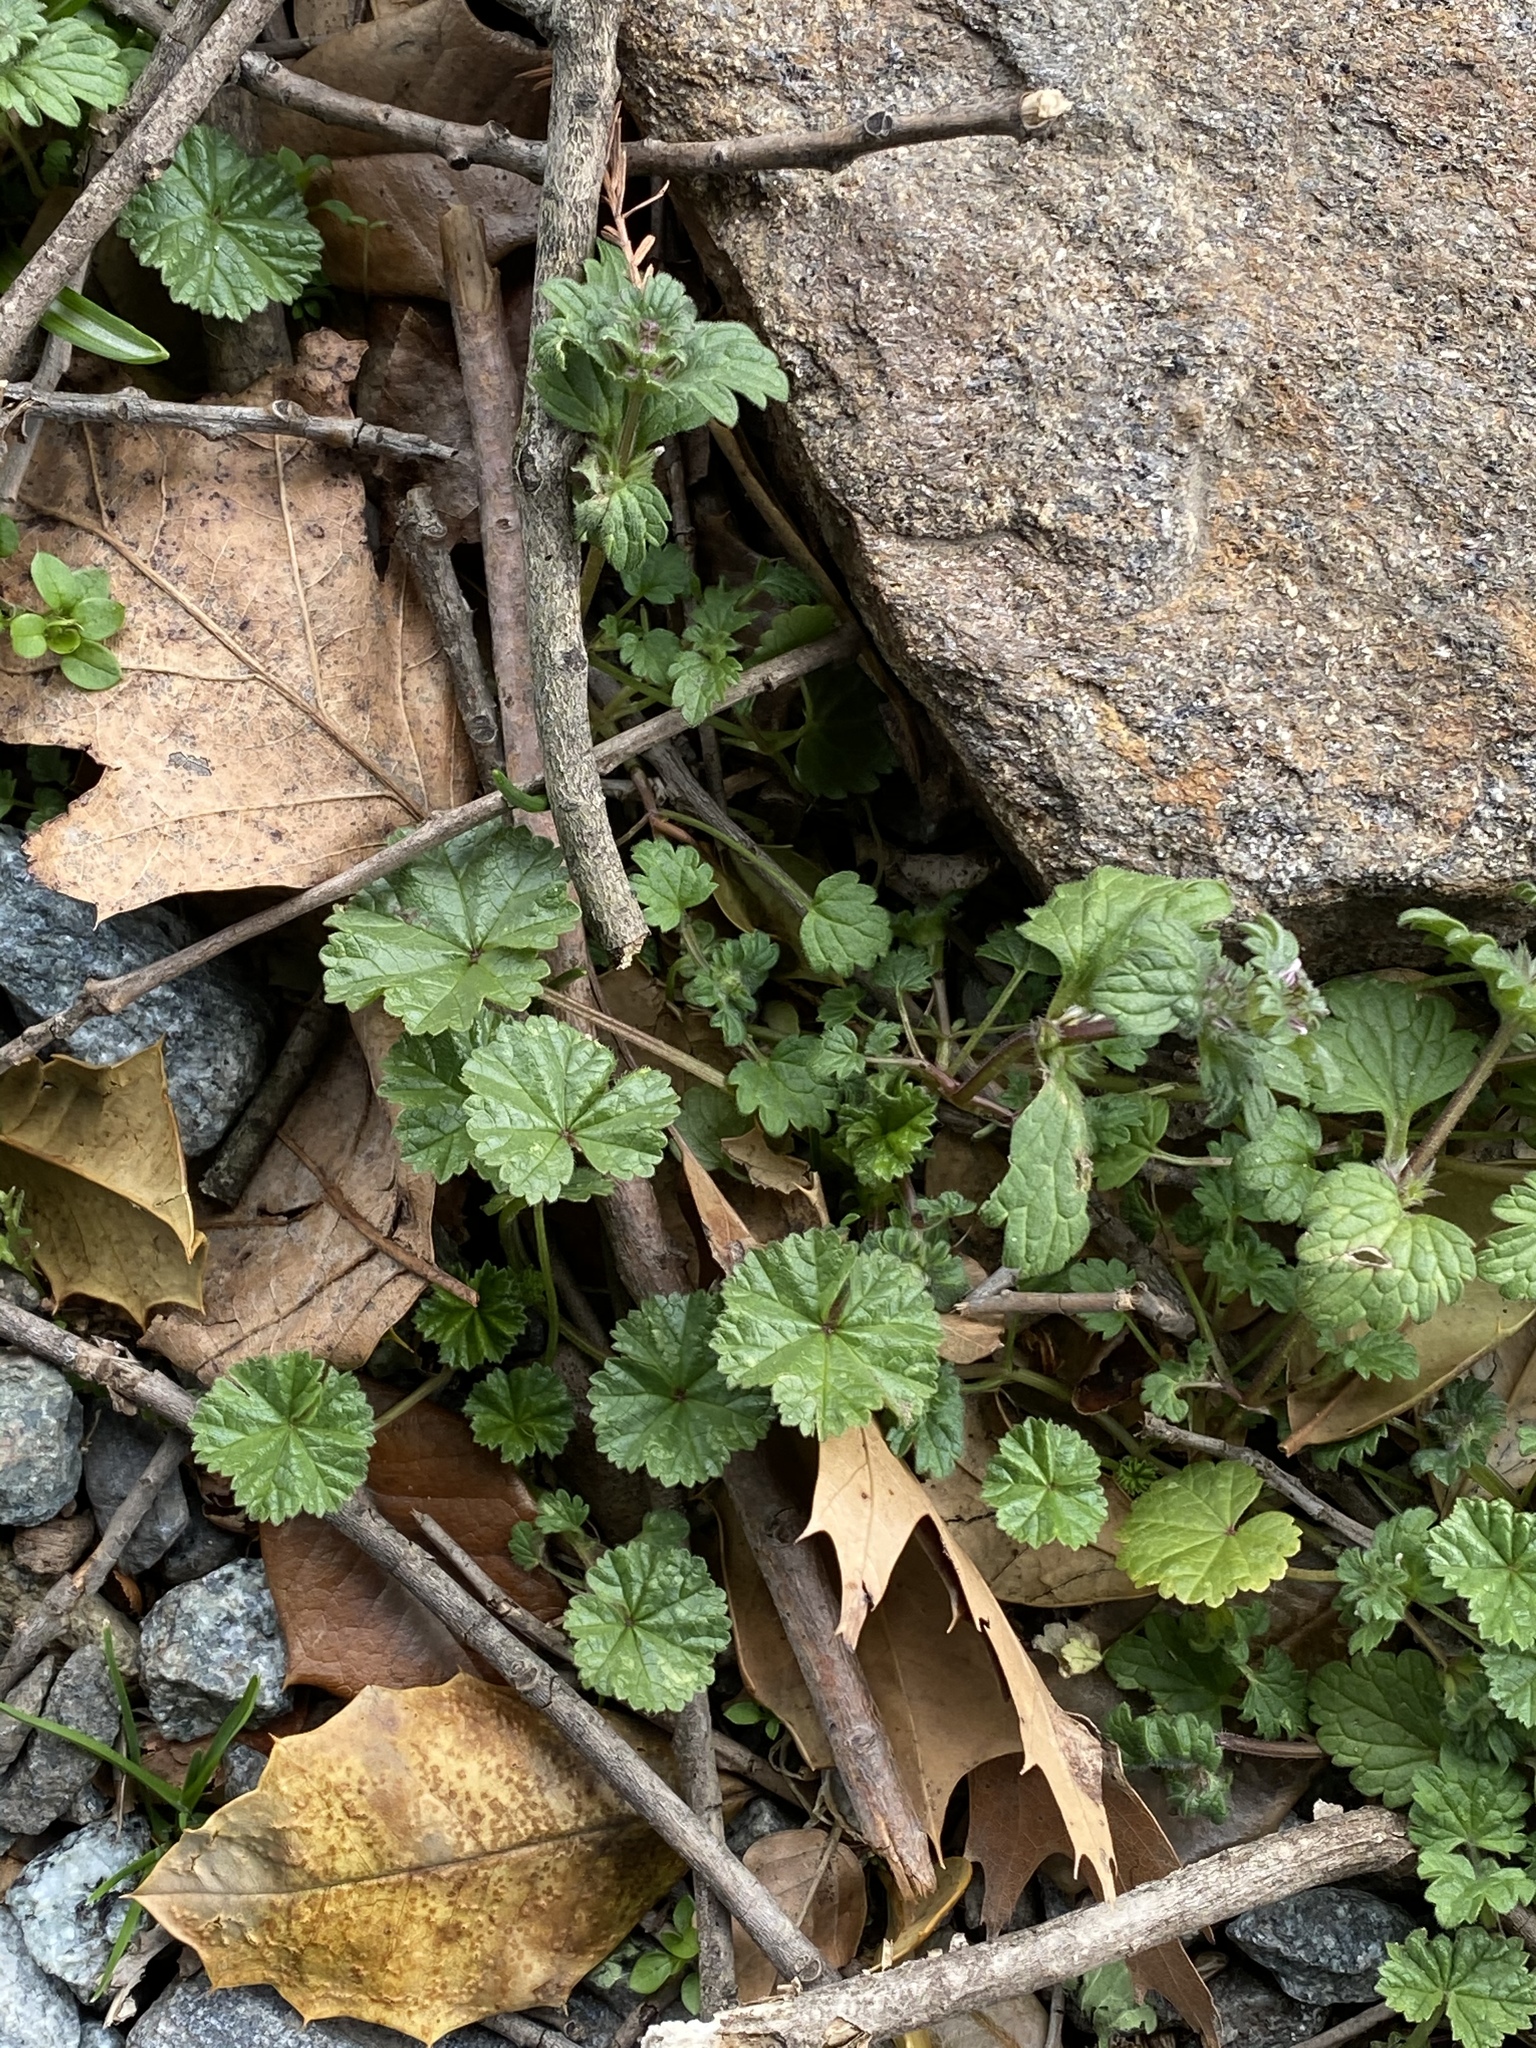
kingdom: Plantae
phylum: Tracheophyta
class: Magnoliopsida
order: Malvales
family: Malvaceae
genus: Malva
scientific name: Malva neglecta
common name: Common mallow
